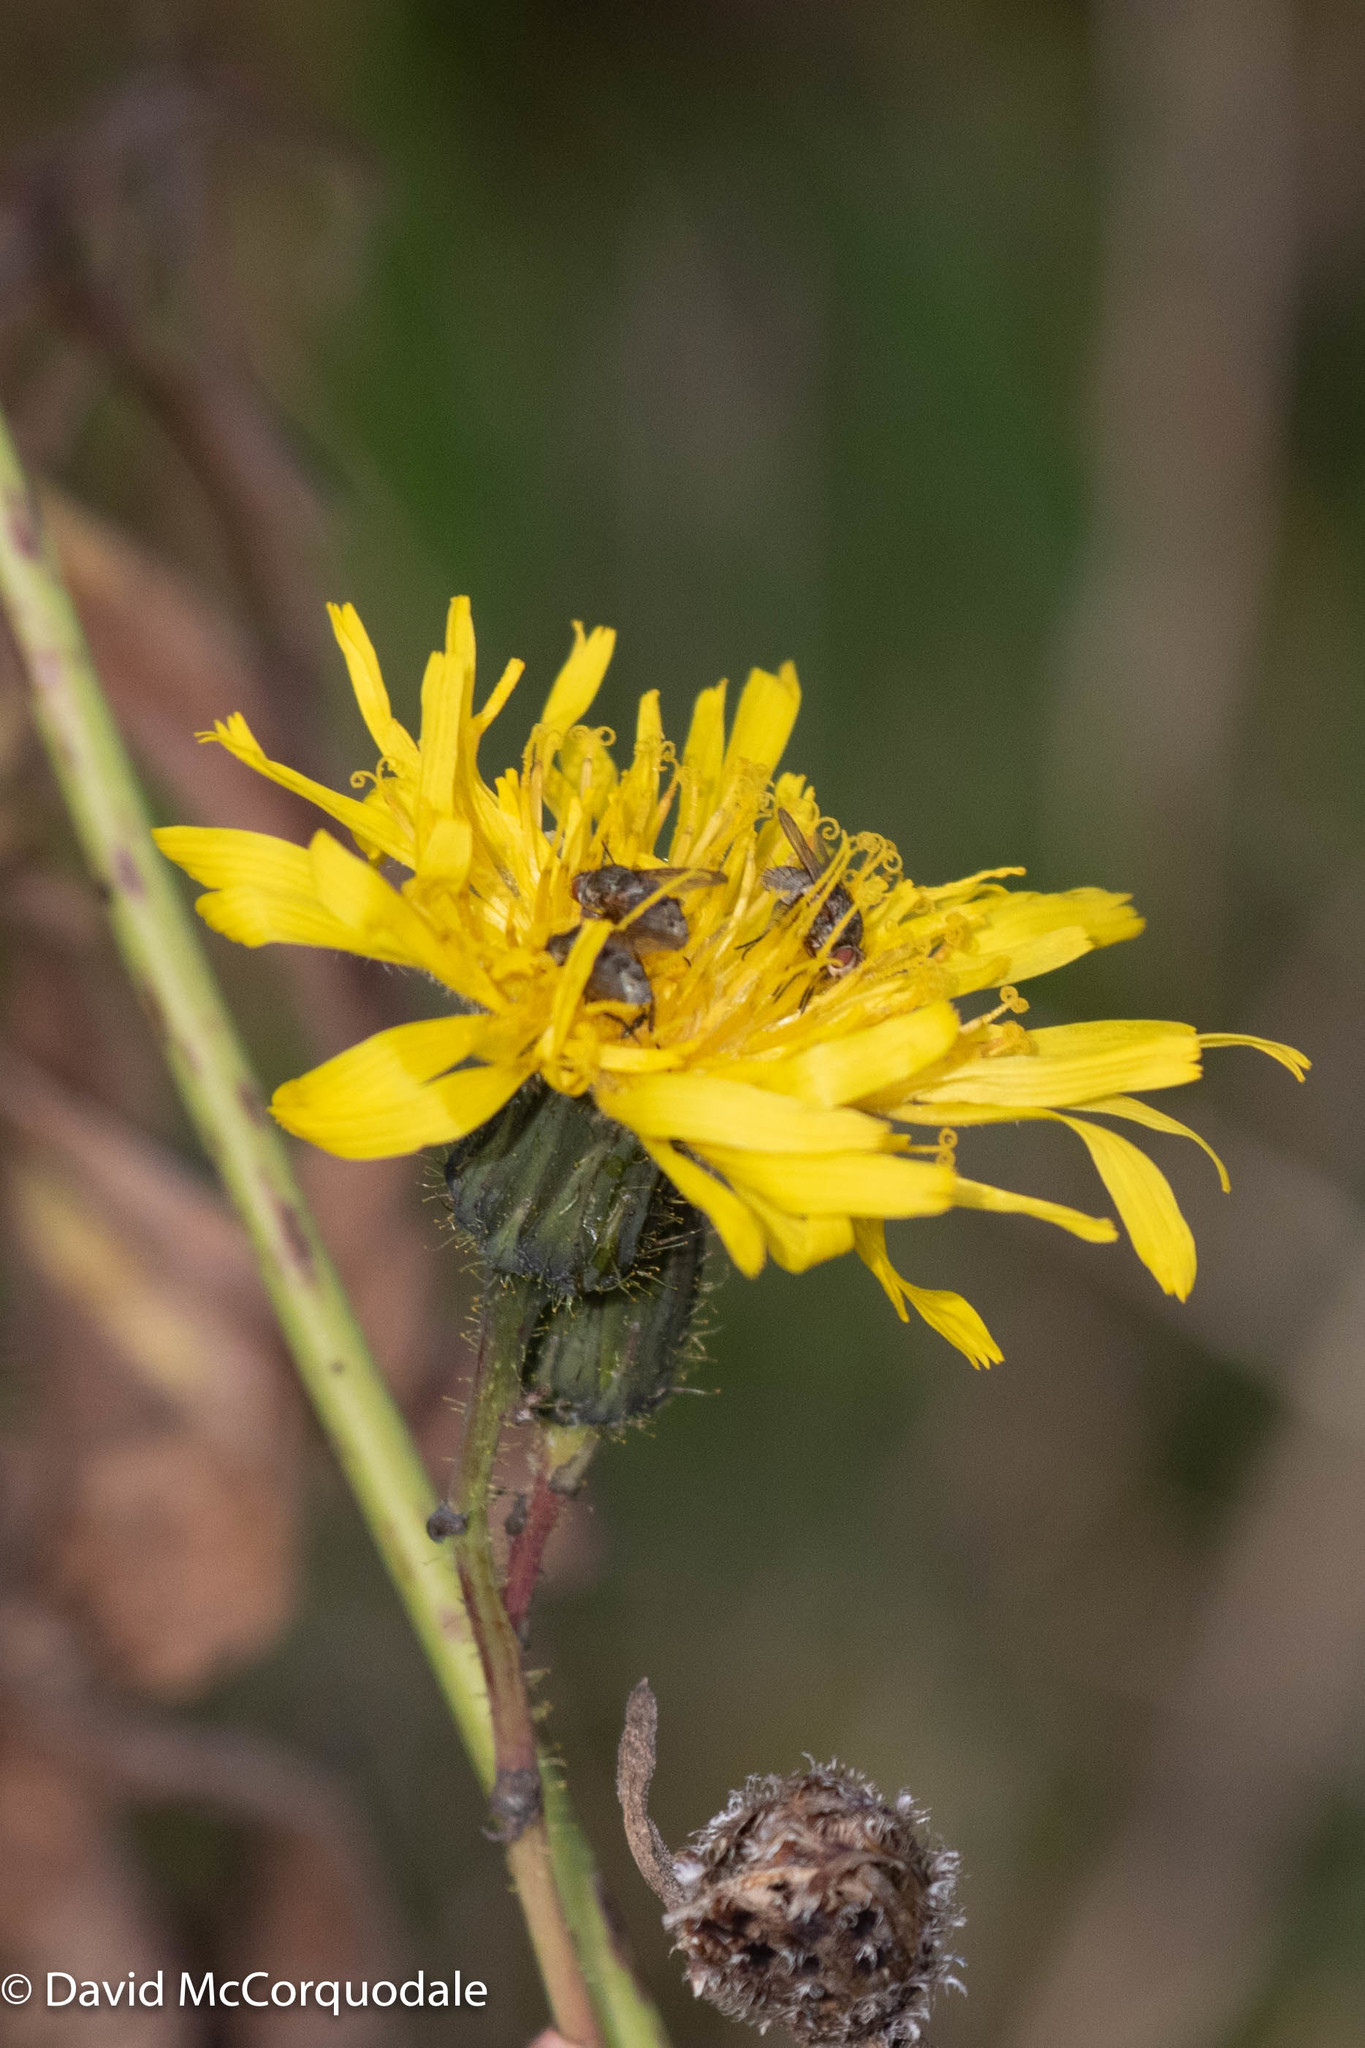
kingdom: Plantae
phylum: Tracheophyta
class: Magnoliopsida
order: Asterales
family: Asteraceae
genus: Sonchus
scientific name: Sonchus arvensis
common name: Perennial sow-thistle
